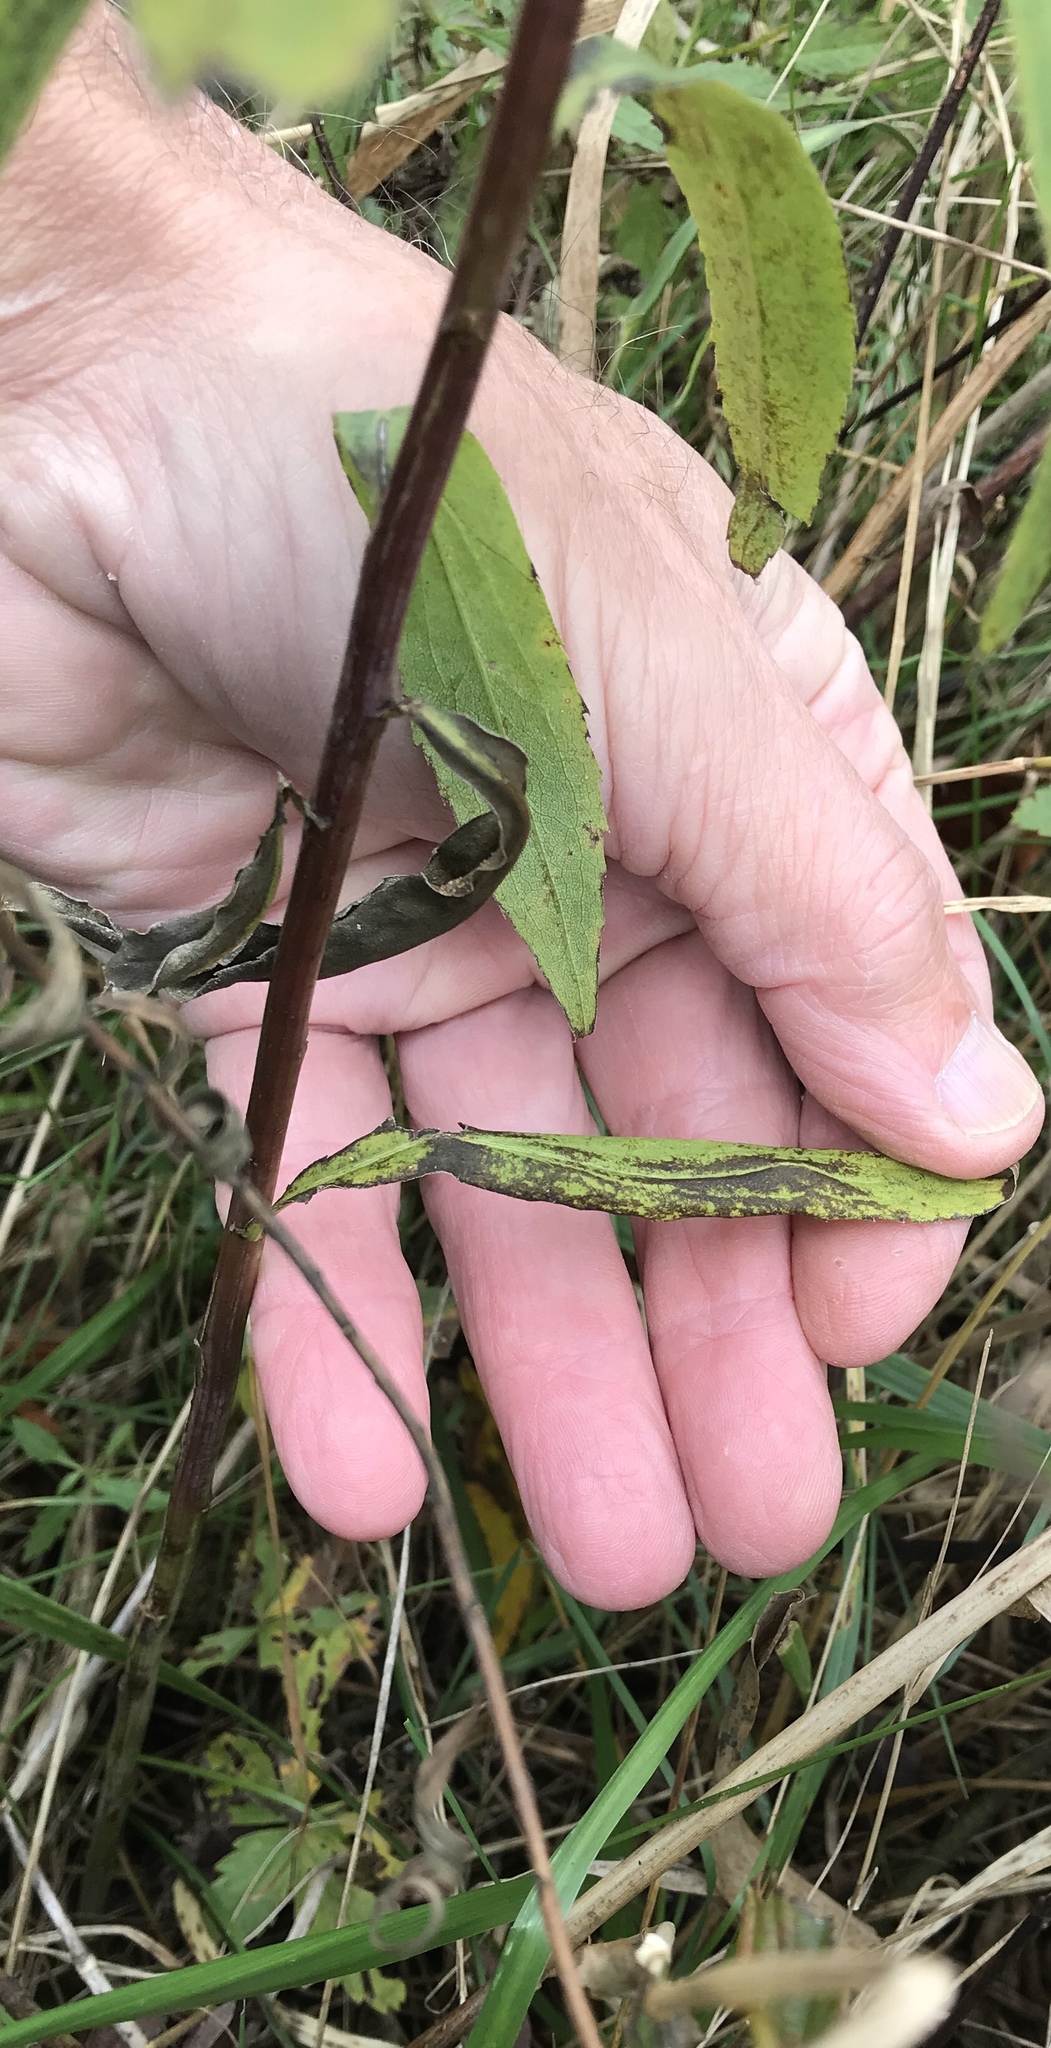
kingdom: Plantae
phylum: Tracheophyta
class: Magnoliopsida
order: Asterales
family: Asteraceae
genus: Solidago
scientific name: Solidago gigantea
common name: Giant goldenrod
